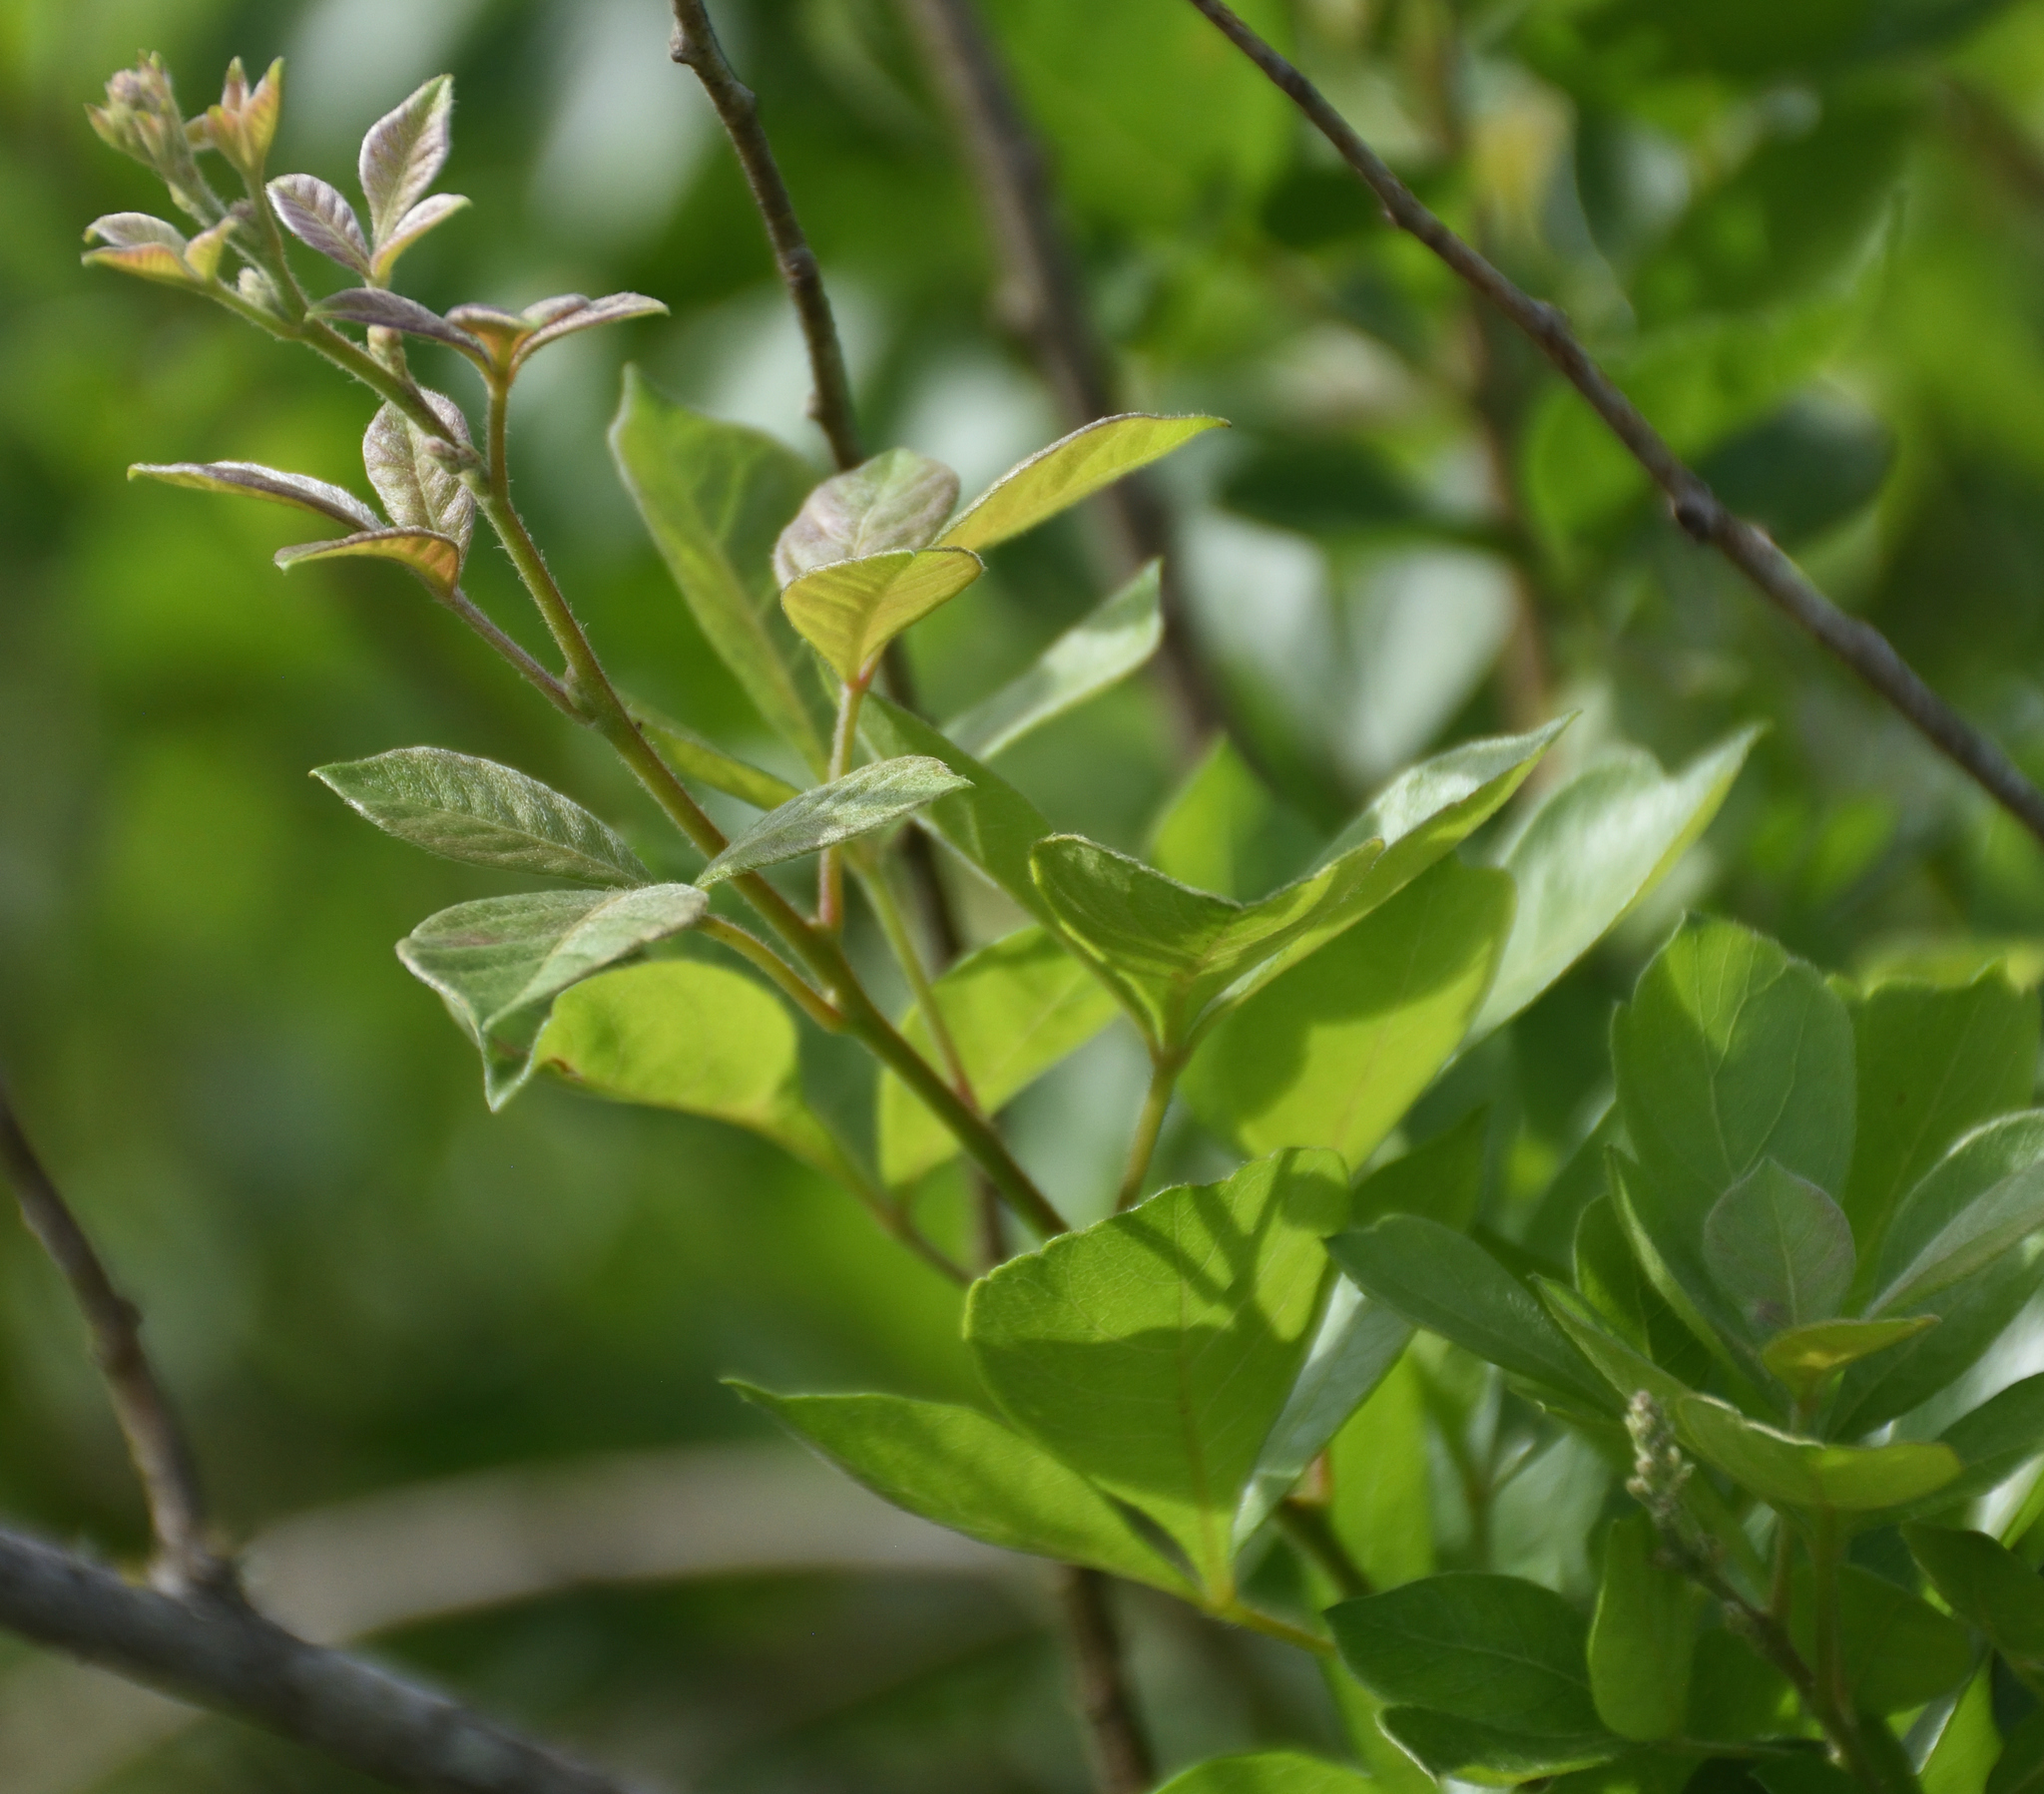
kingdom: Plantae
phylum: Tracheophyta
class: Magnoliopsida
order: Sapindales
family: Anacardiaceae
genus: Searsia
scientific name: Searsia pyroides
